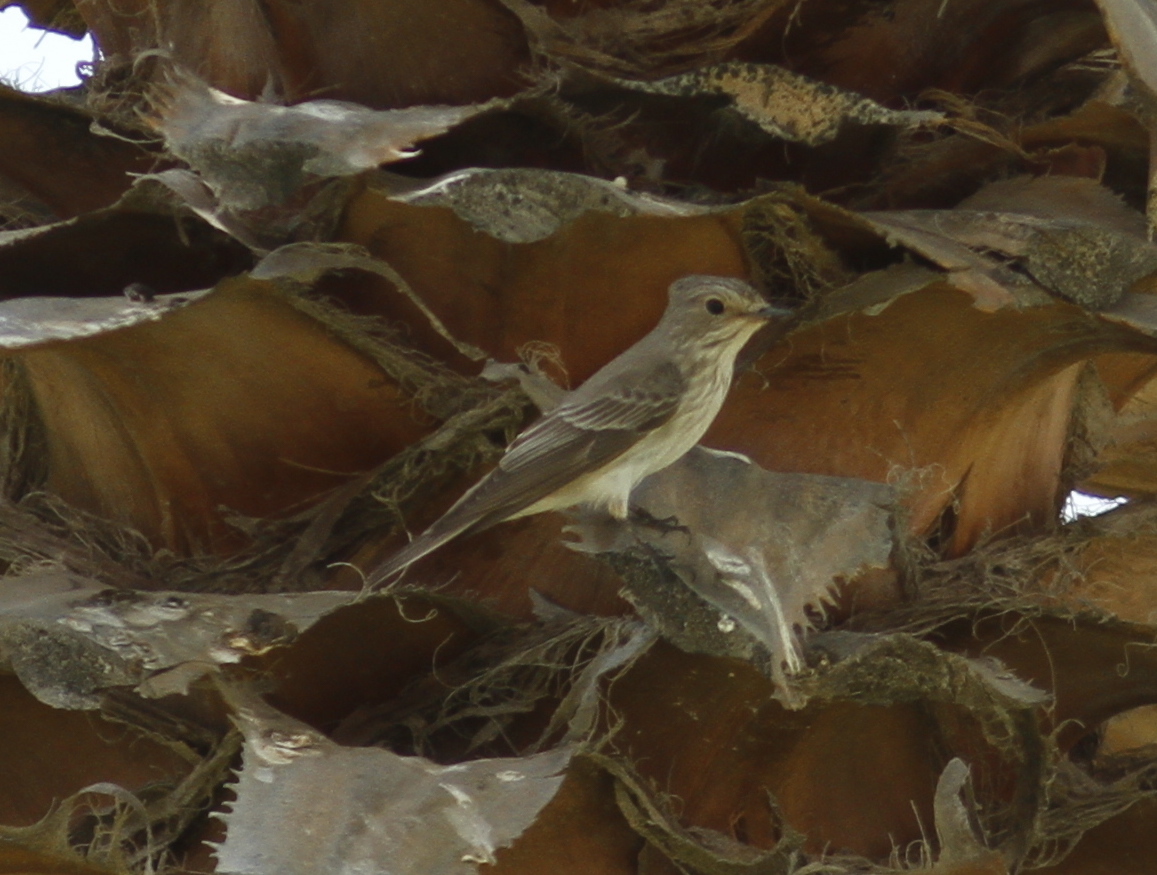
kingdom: Animalia
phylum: Chordata
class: Aves
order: Passeriformes
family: Muscicapidae
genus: Muscicapa
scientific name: Muscicapa striata
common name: Spotted flycatcher
